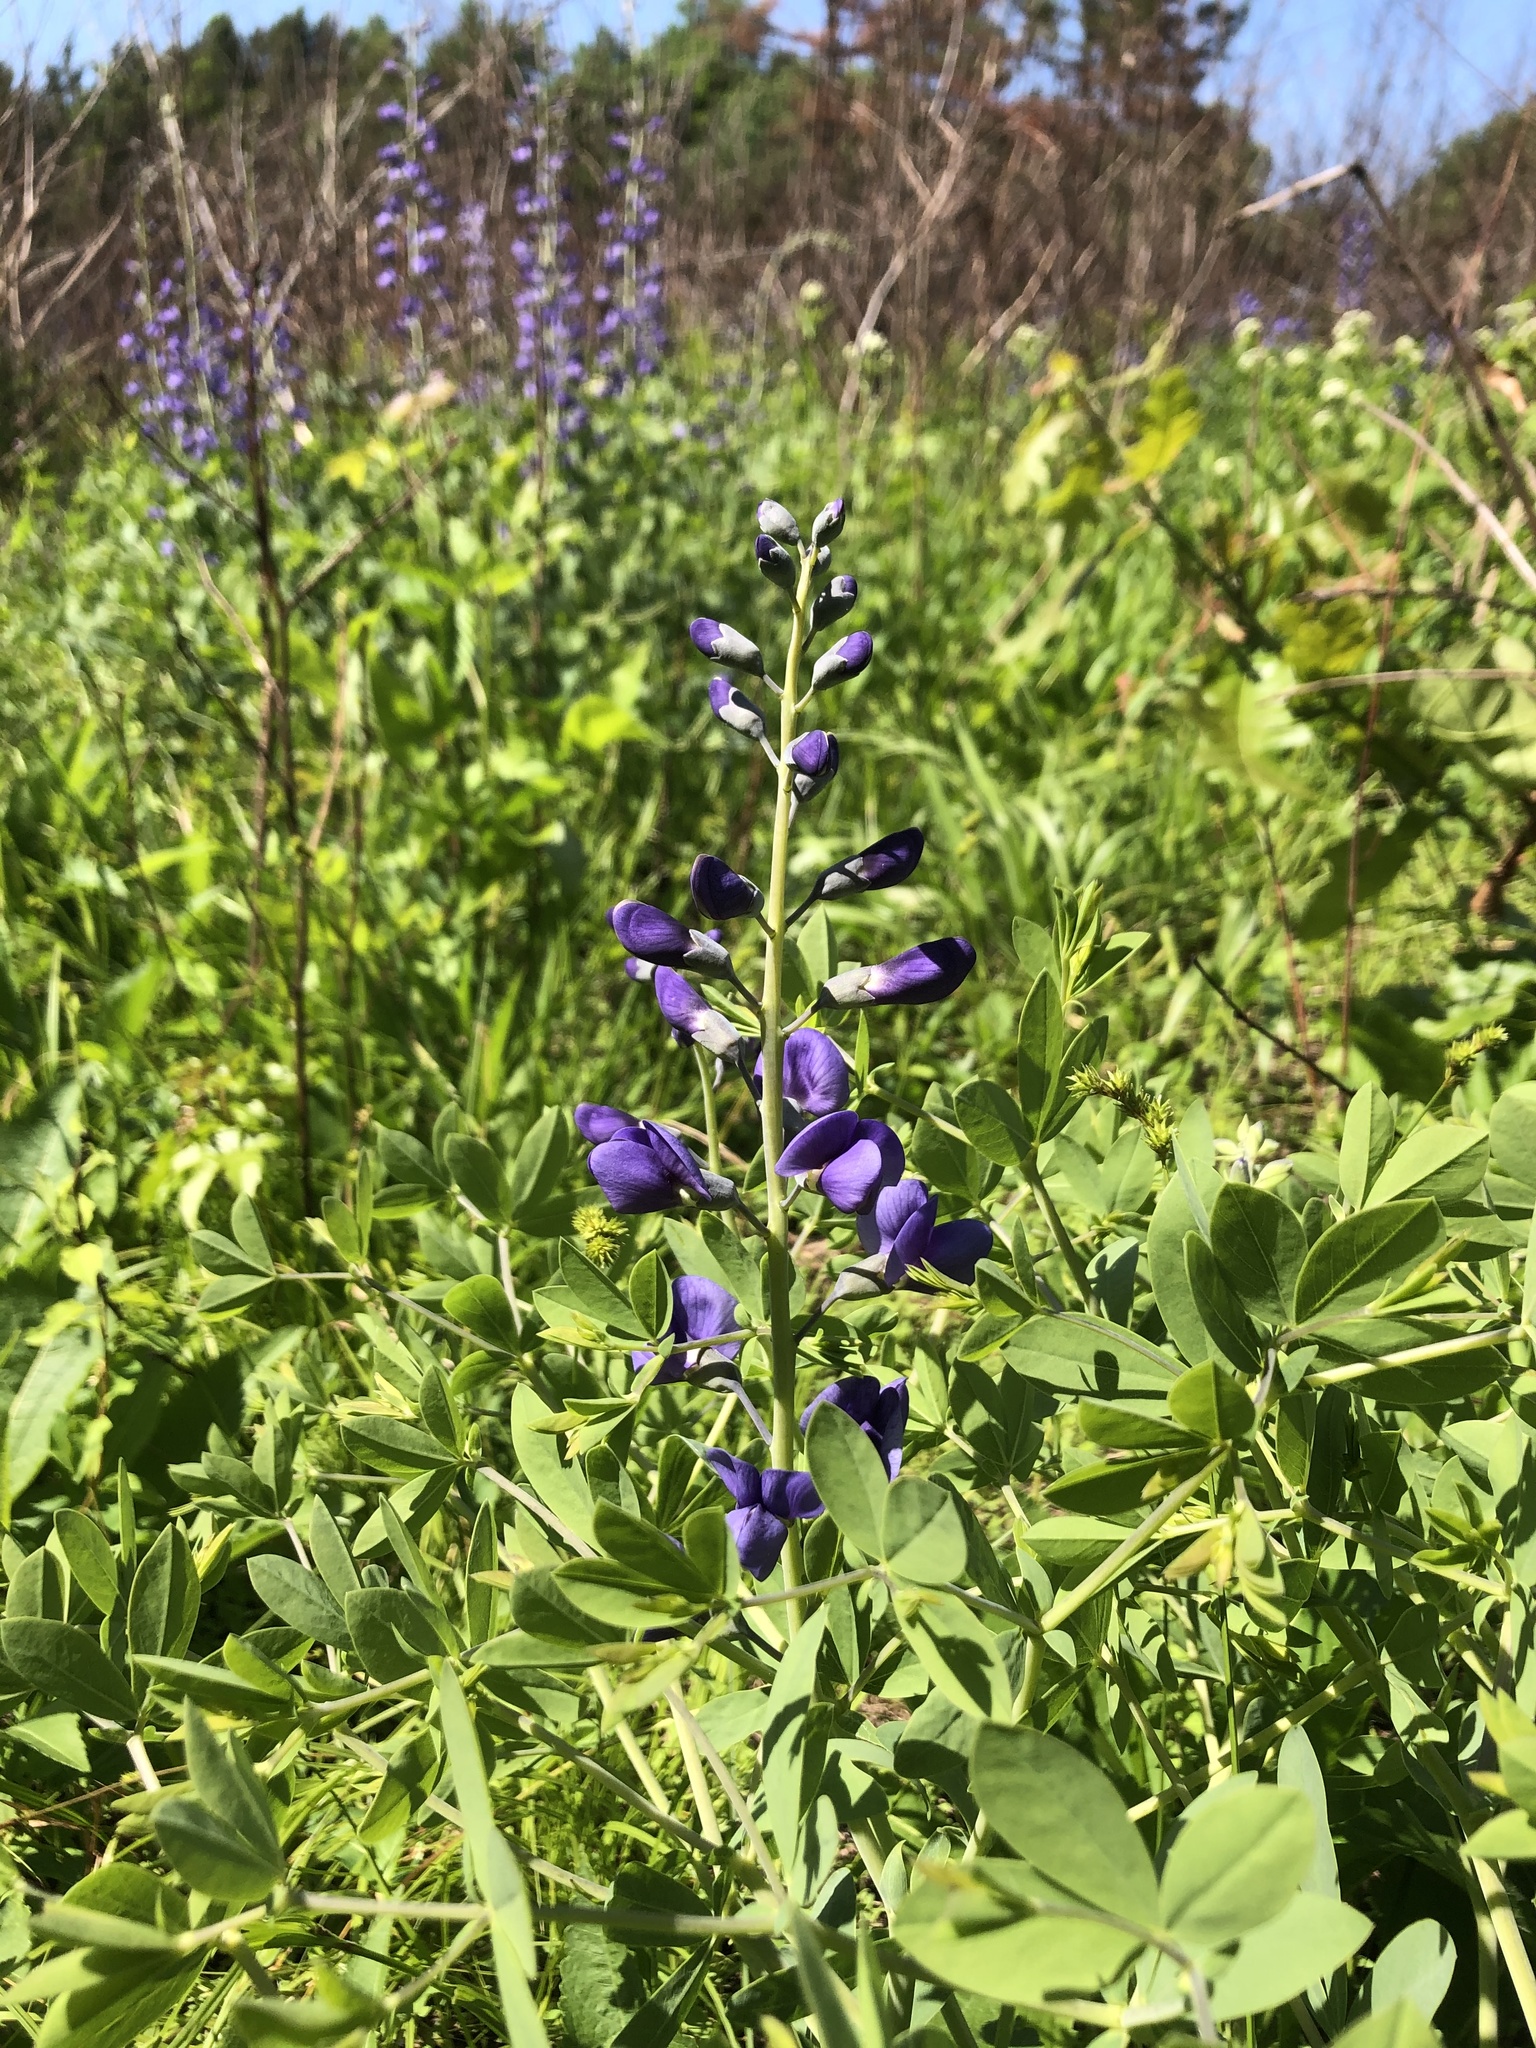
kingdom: Plantae
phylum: Tracheophyta
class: Magnoliopsida
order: Fabales
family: Fabaceae
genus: Baptisia
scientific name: Baptisia aberrans
